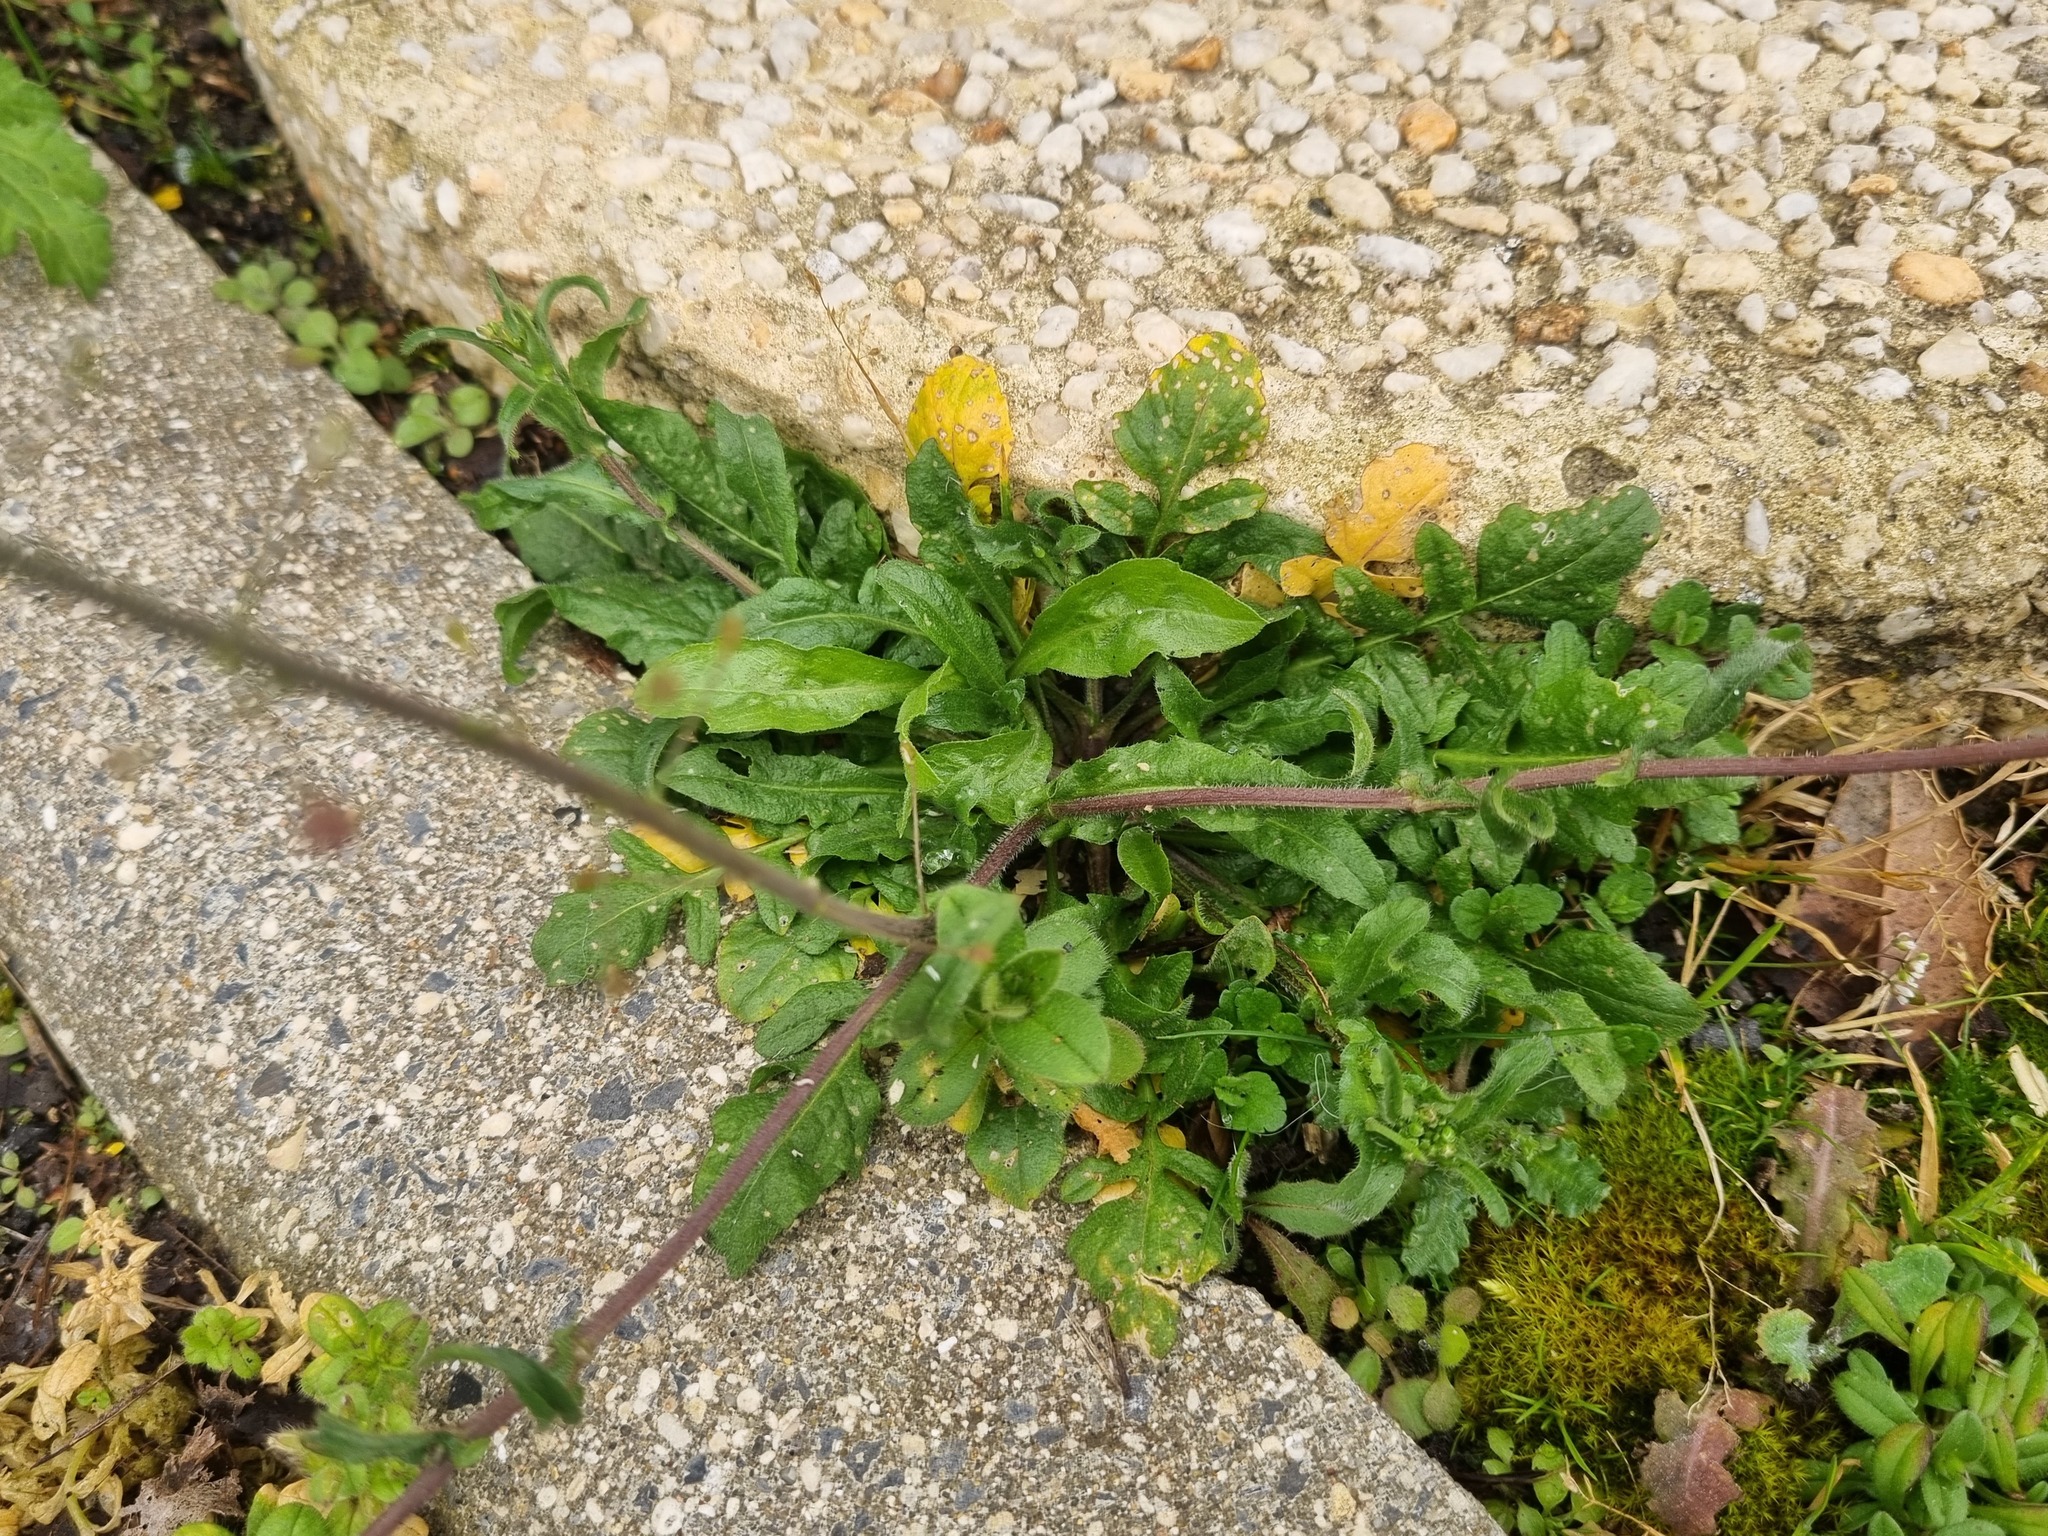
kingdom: Plantae
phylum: Tracheophyta
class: Magnoliopsida
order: Brassicales
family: Brassicaceae
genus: Capsella
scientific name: Capsella bursa-pastoris
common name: Shepherd's purse
